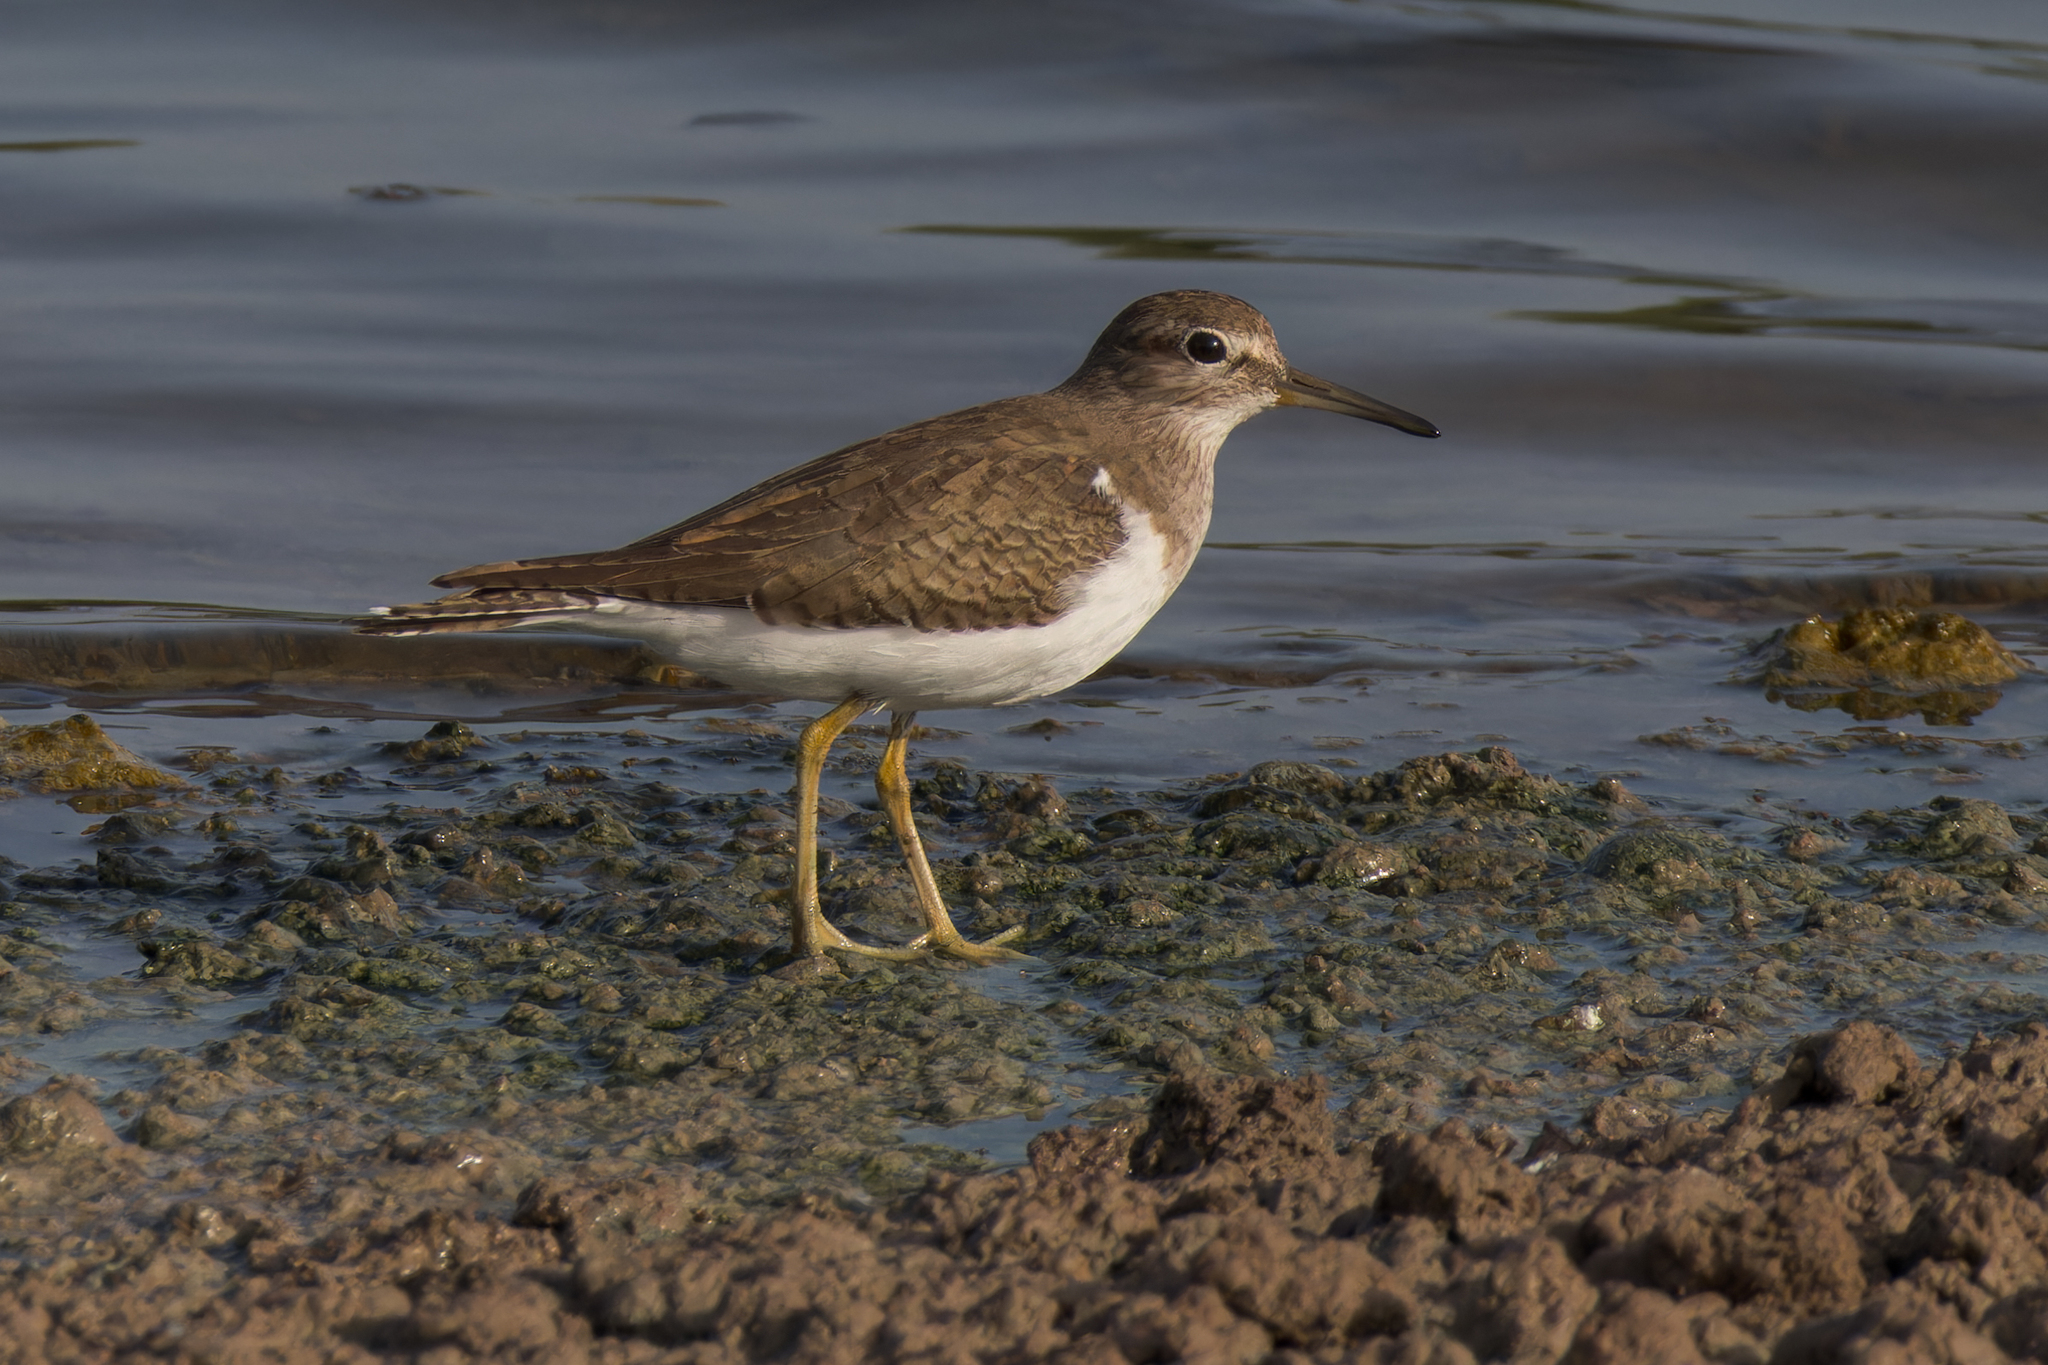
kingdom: Animalia
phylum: Chordata
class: Aves
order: Charadriiformes
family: Scolopacidae
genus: Actitis
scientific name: Actitis hypoleucos
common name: Common sandpiper
